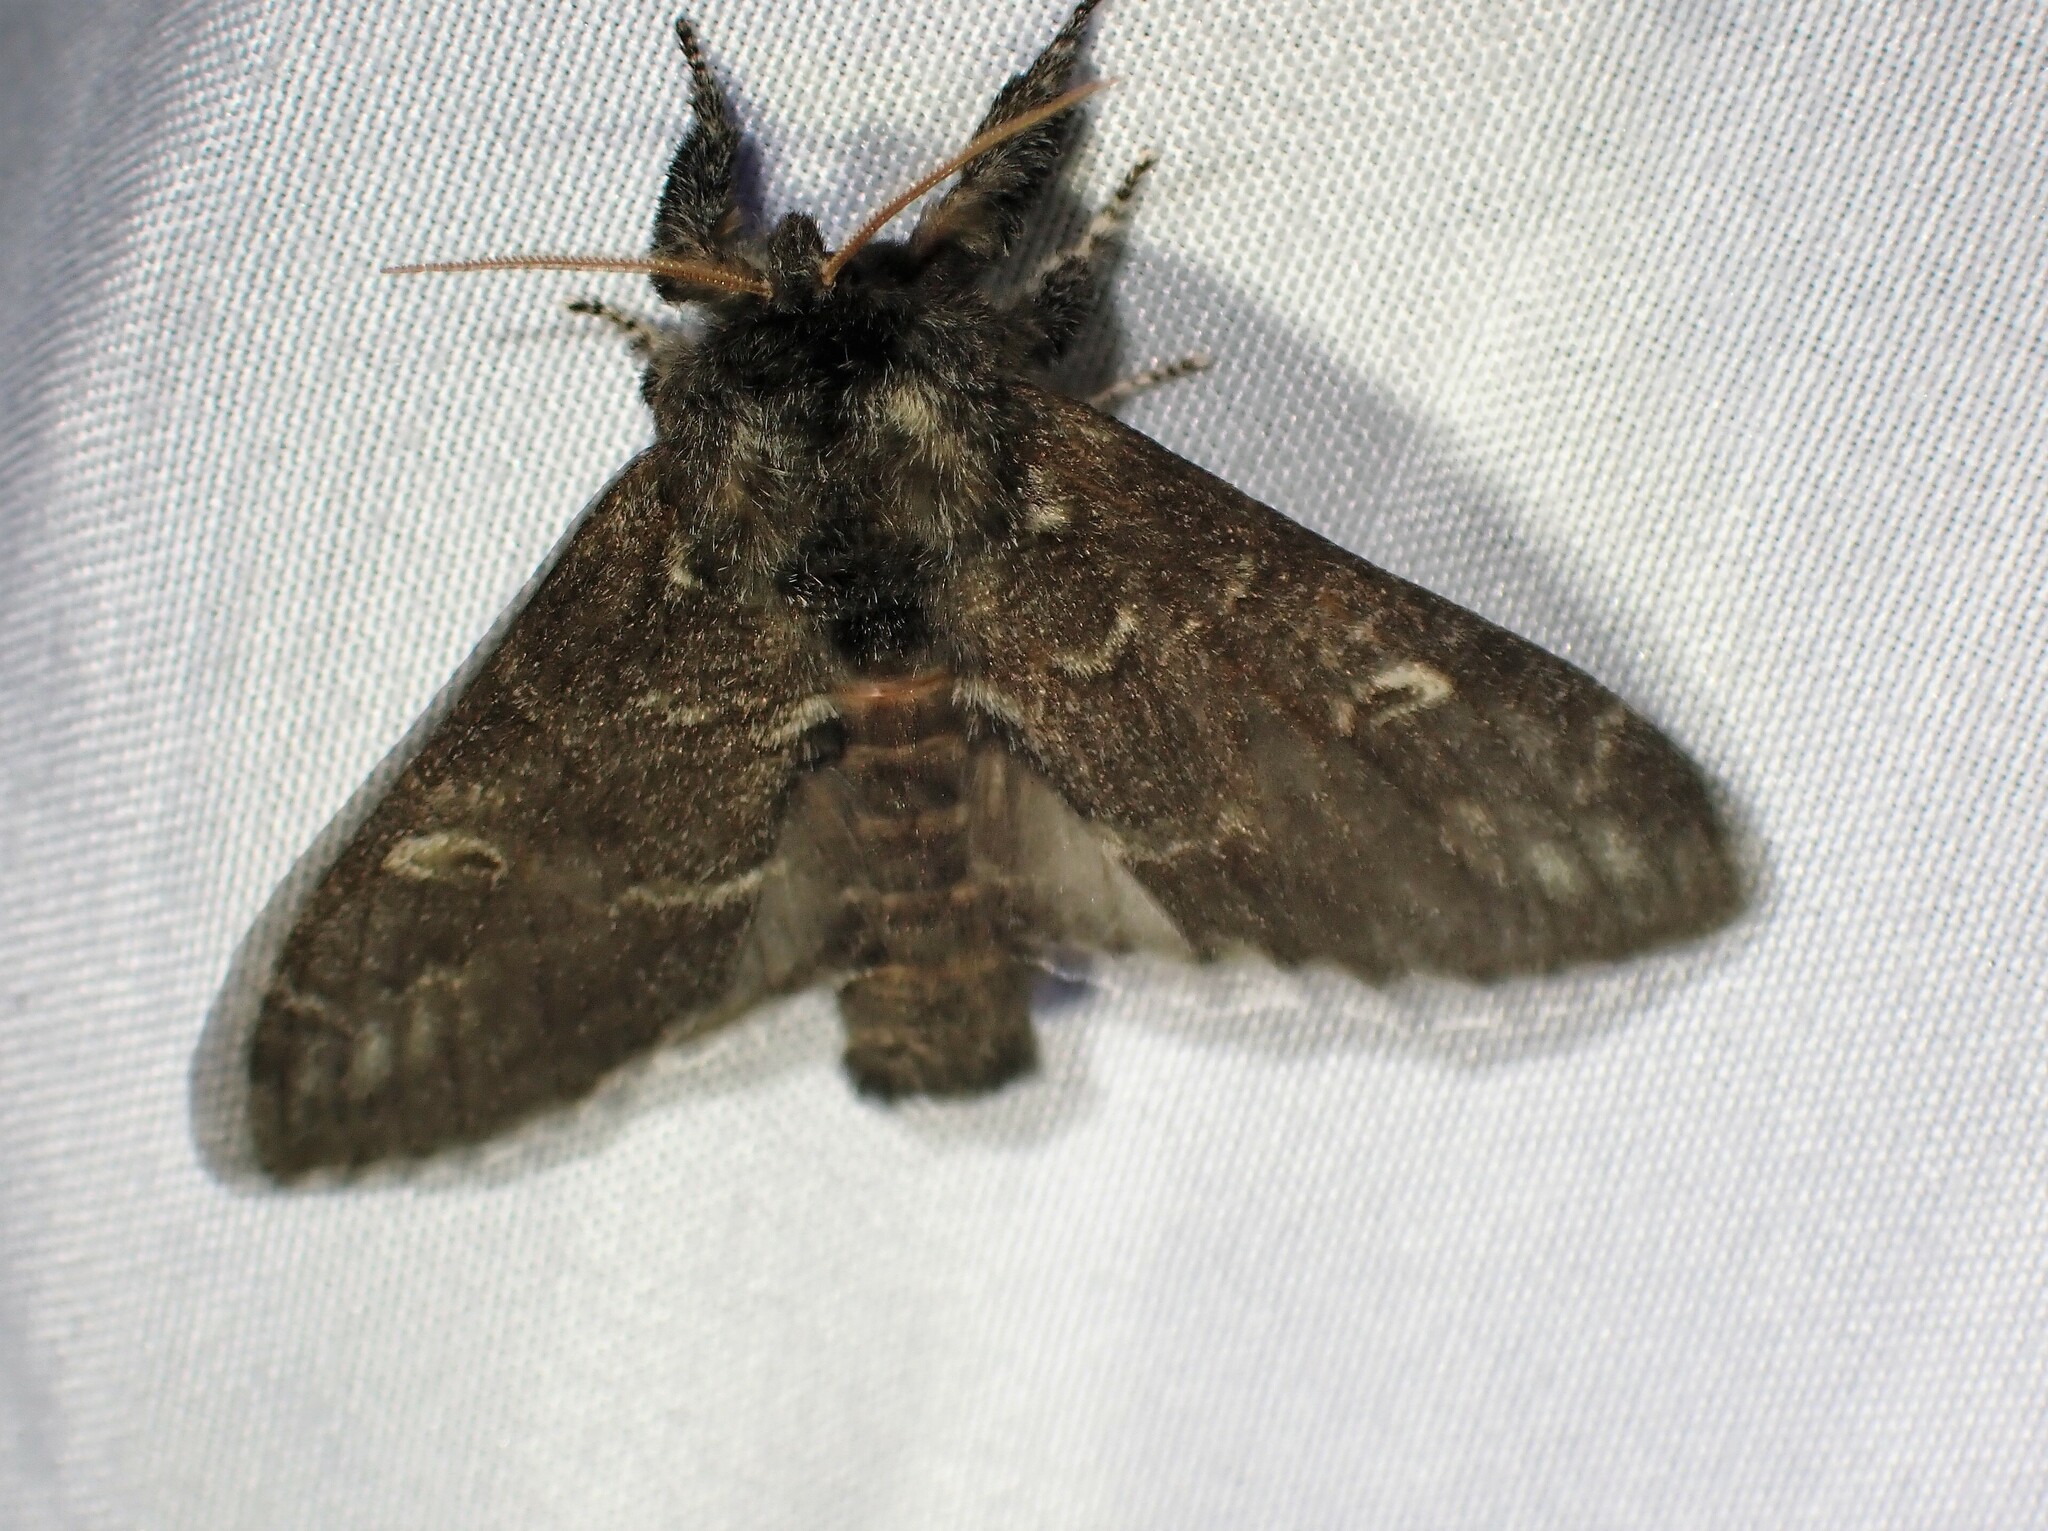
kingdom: Animalia
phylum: Arthropoda
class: Insecta
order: Lepidoptera
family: Notodontidae
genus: Notodonta
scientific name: Notodonta torva
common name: Large dark prominent
